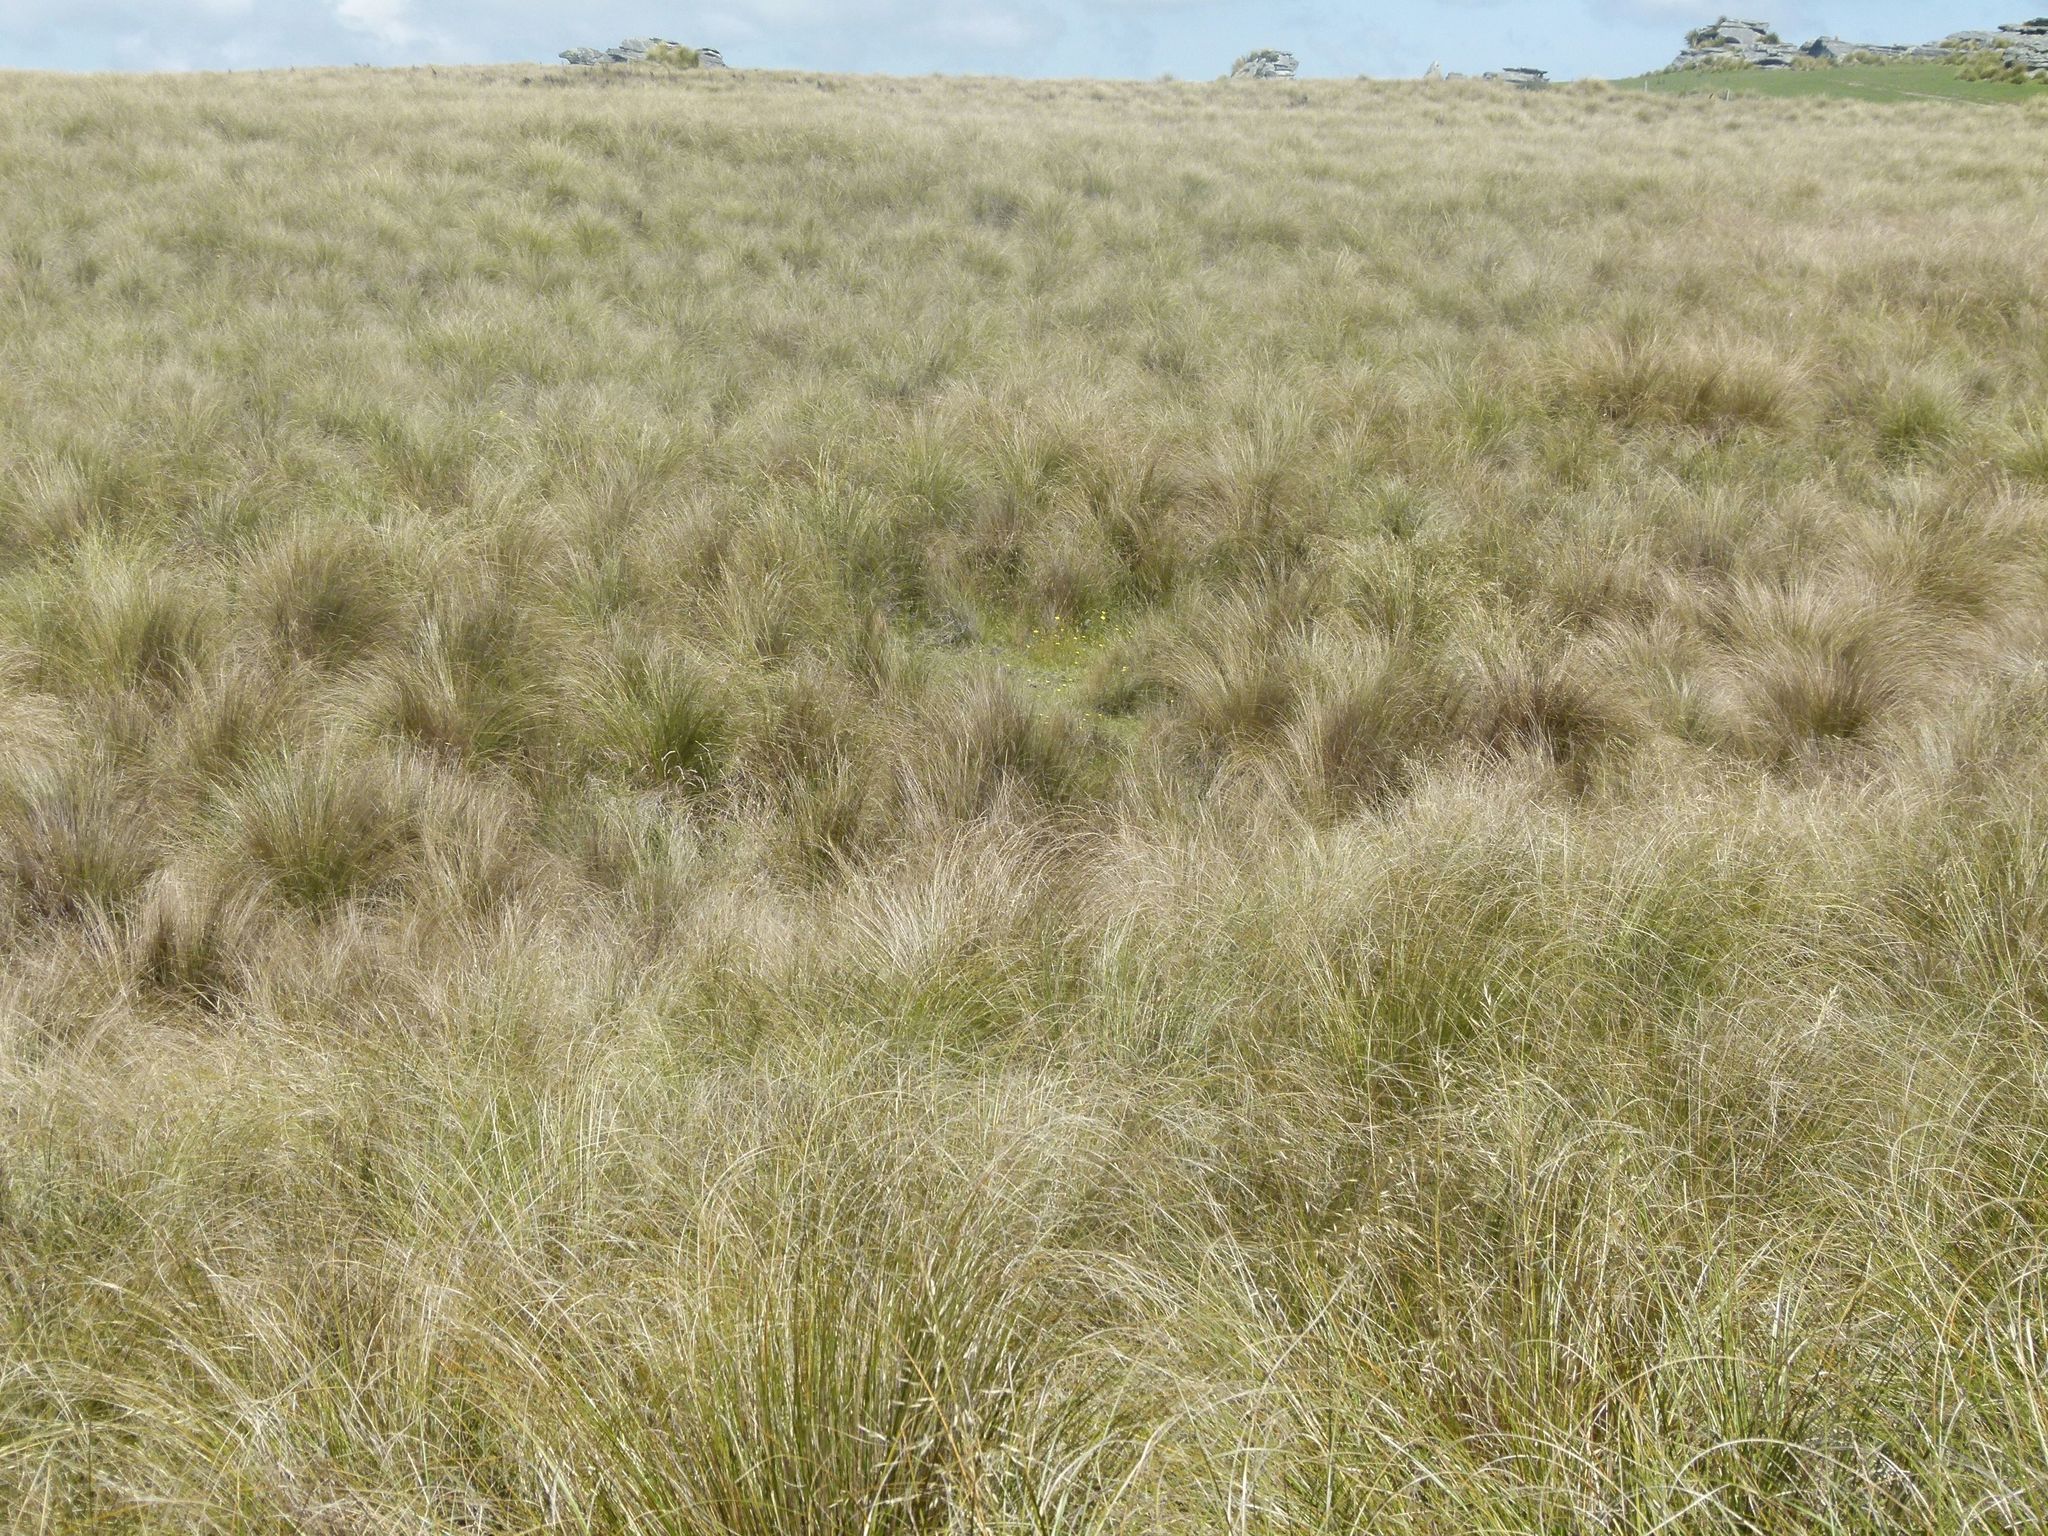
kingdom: Animalia
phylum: Arthropoda
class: Insecta
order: Diptera
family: Helosciomyzidae
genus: Napaeosciomyza
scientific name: Napaeosciomyza spinicosta
